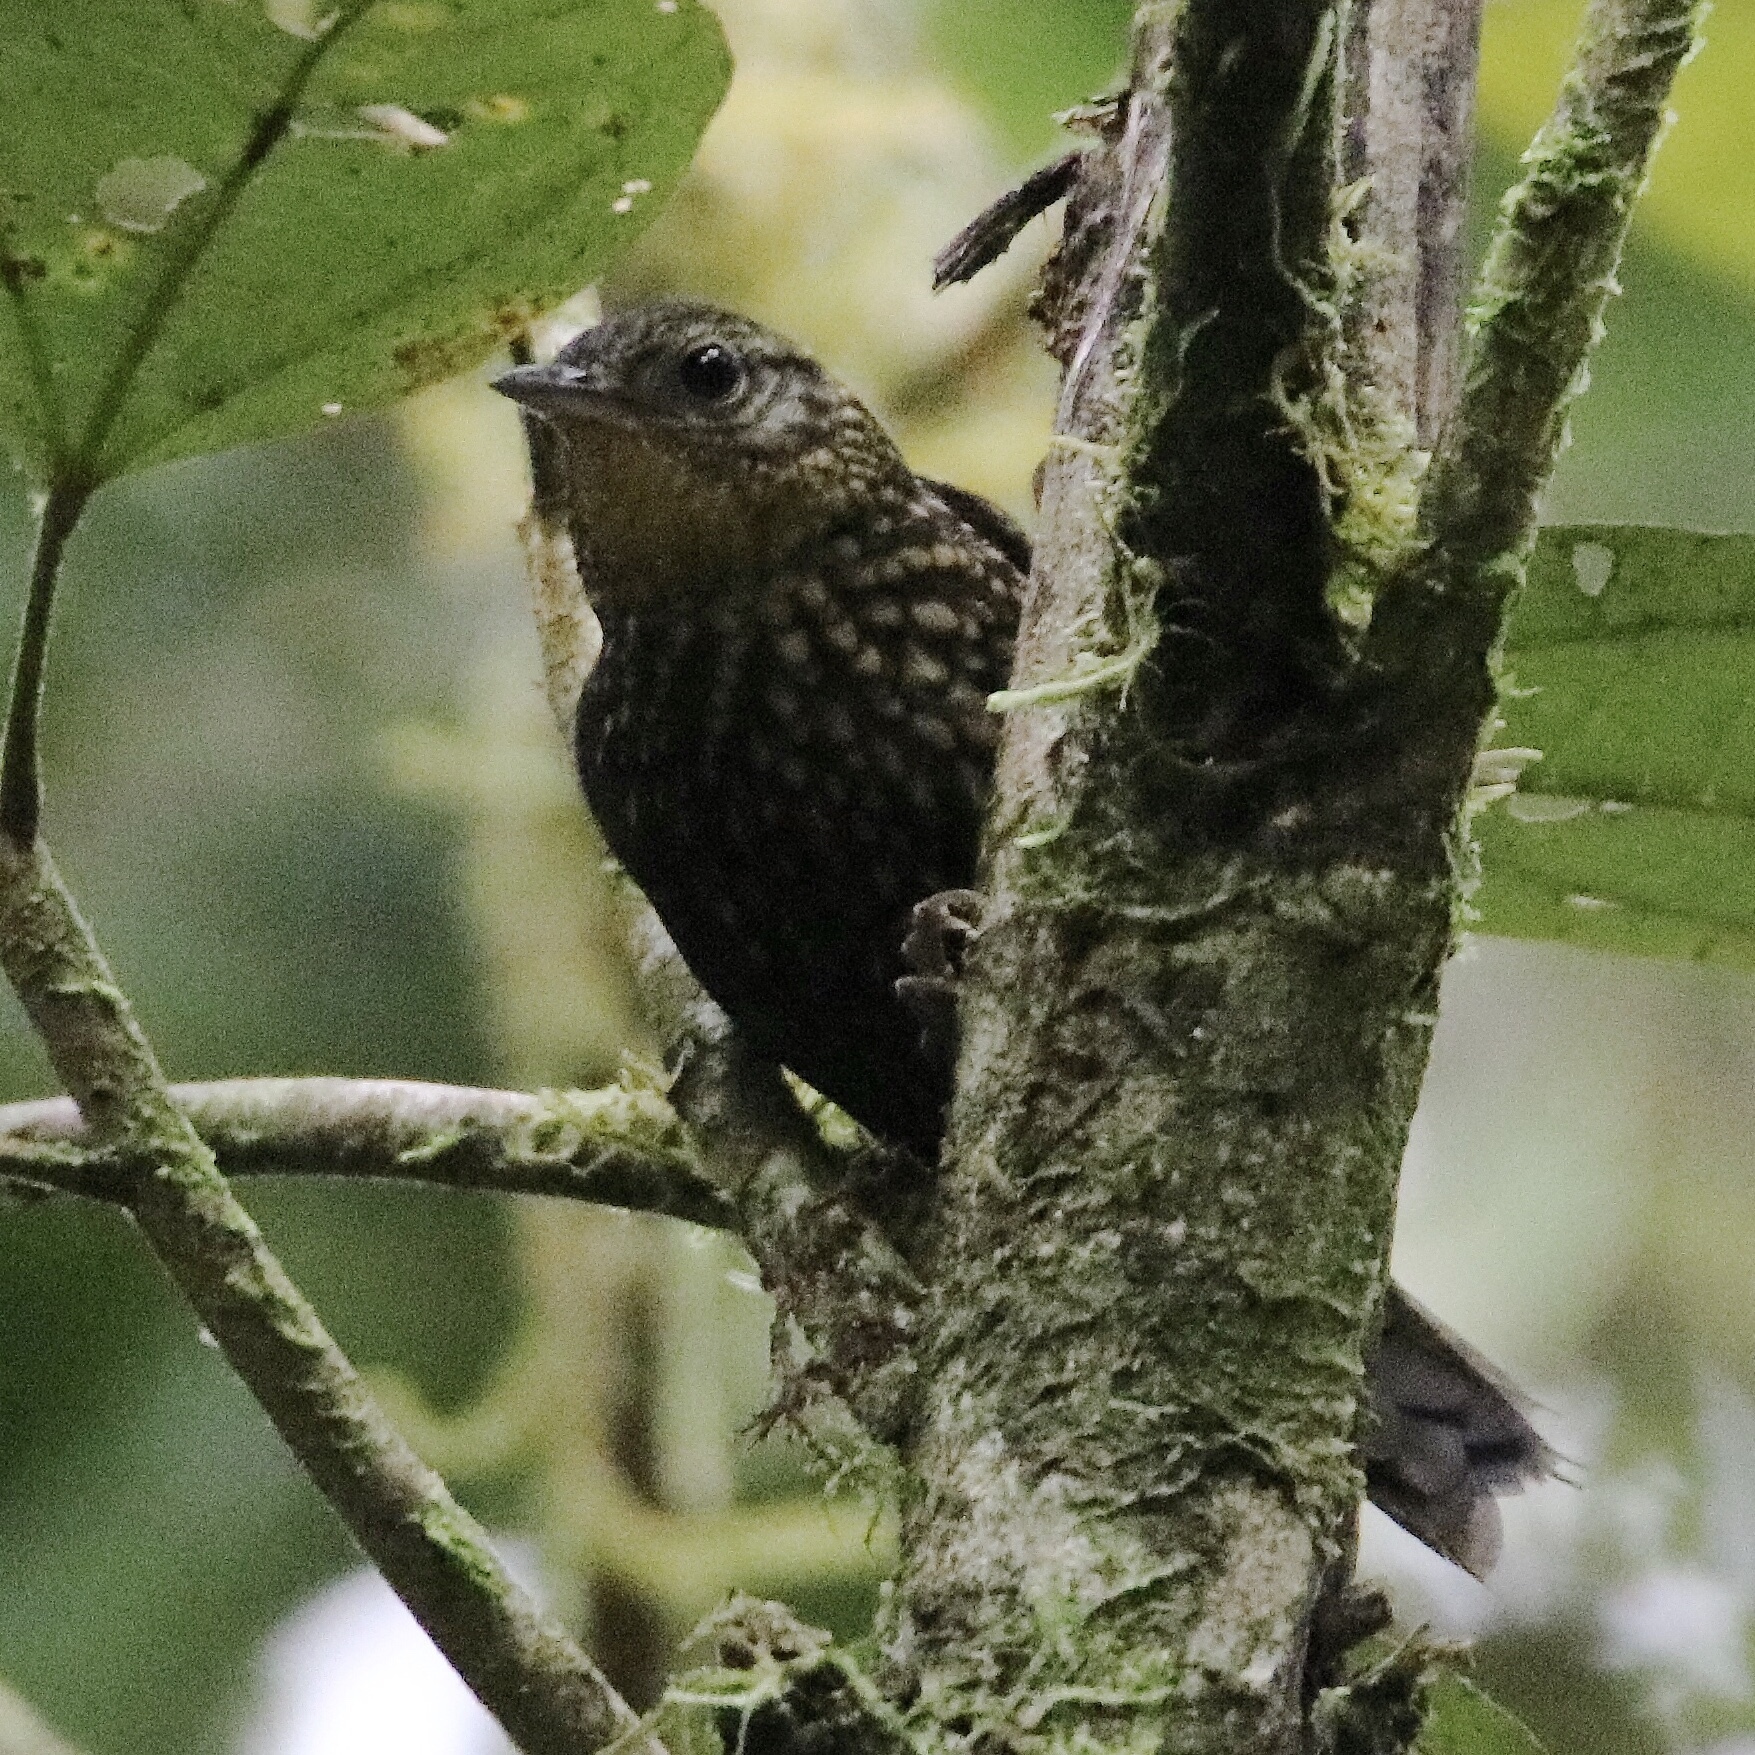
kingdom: Animalia
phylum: Chordata
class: Aves
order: Passeriformes
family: Furnariidae
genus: Premnoplex
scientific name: Premnoplex brunnescens
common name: Spotted barbtail
